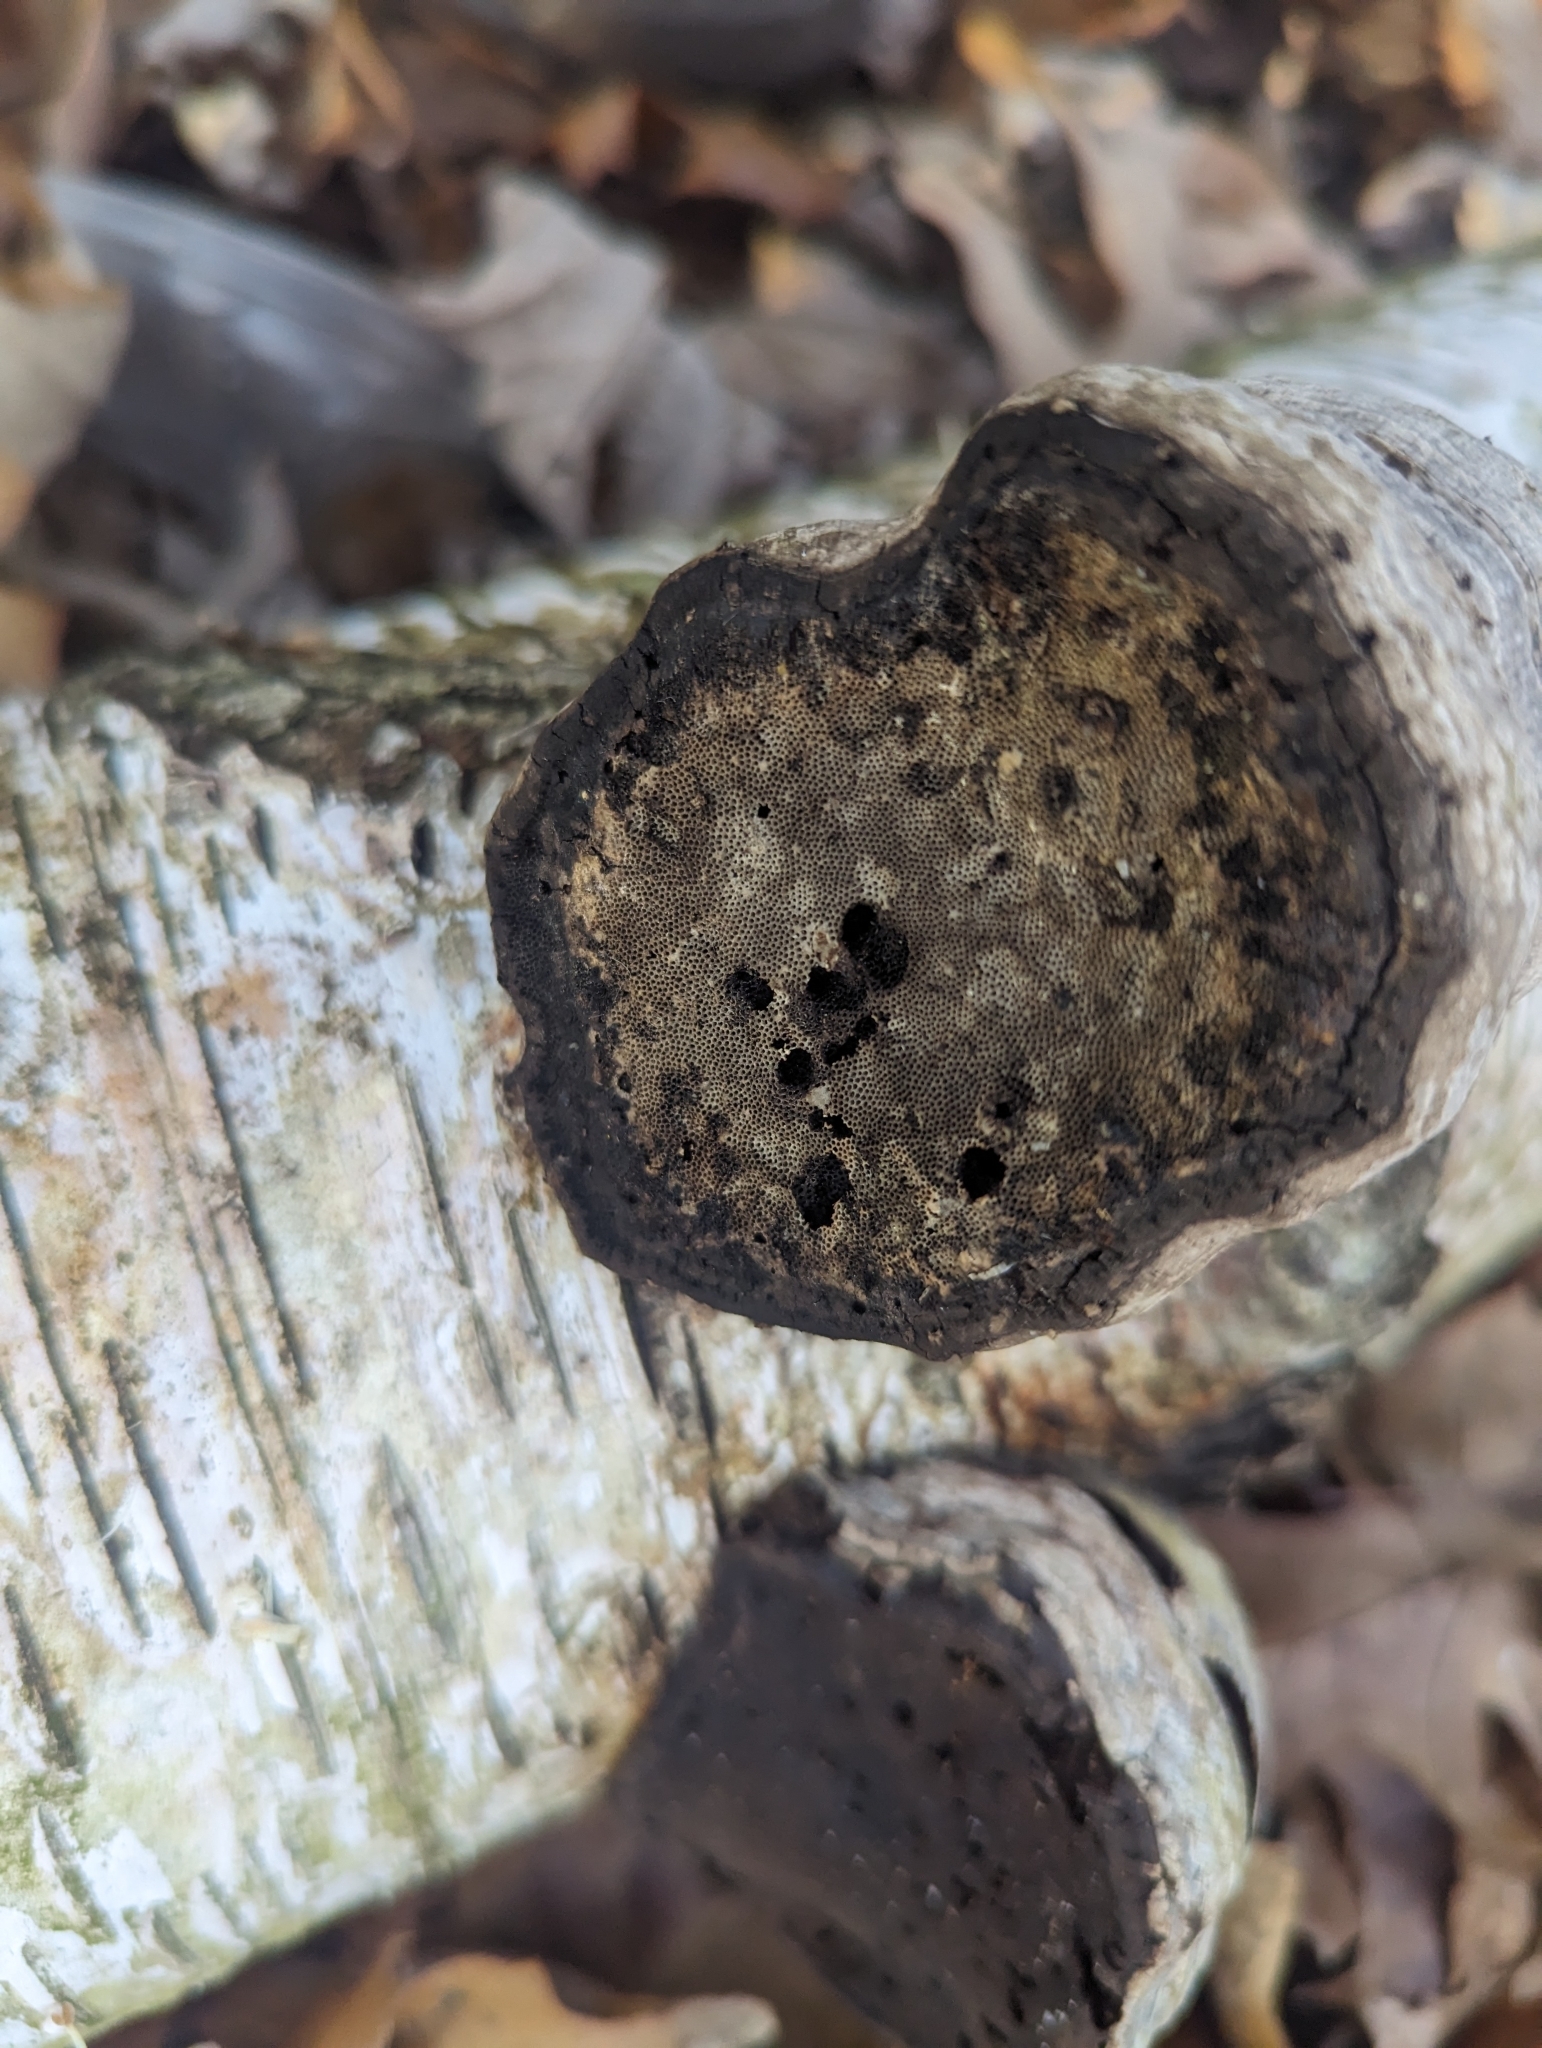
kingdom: Fungi
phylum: Basidiomycota
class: Agaricomycetes
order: Polyporales
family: Polyporaceae
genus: Fomes
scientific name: Fomes fomentarius
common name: Hoof fungus
